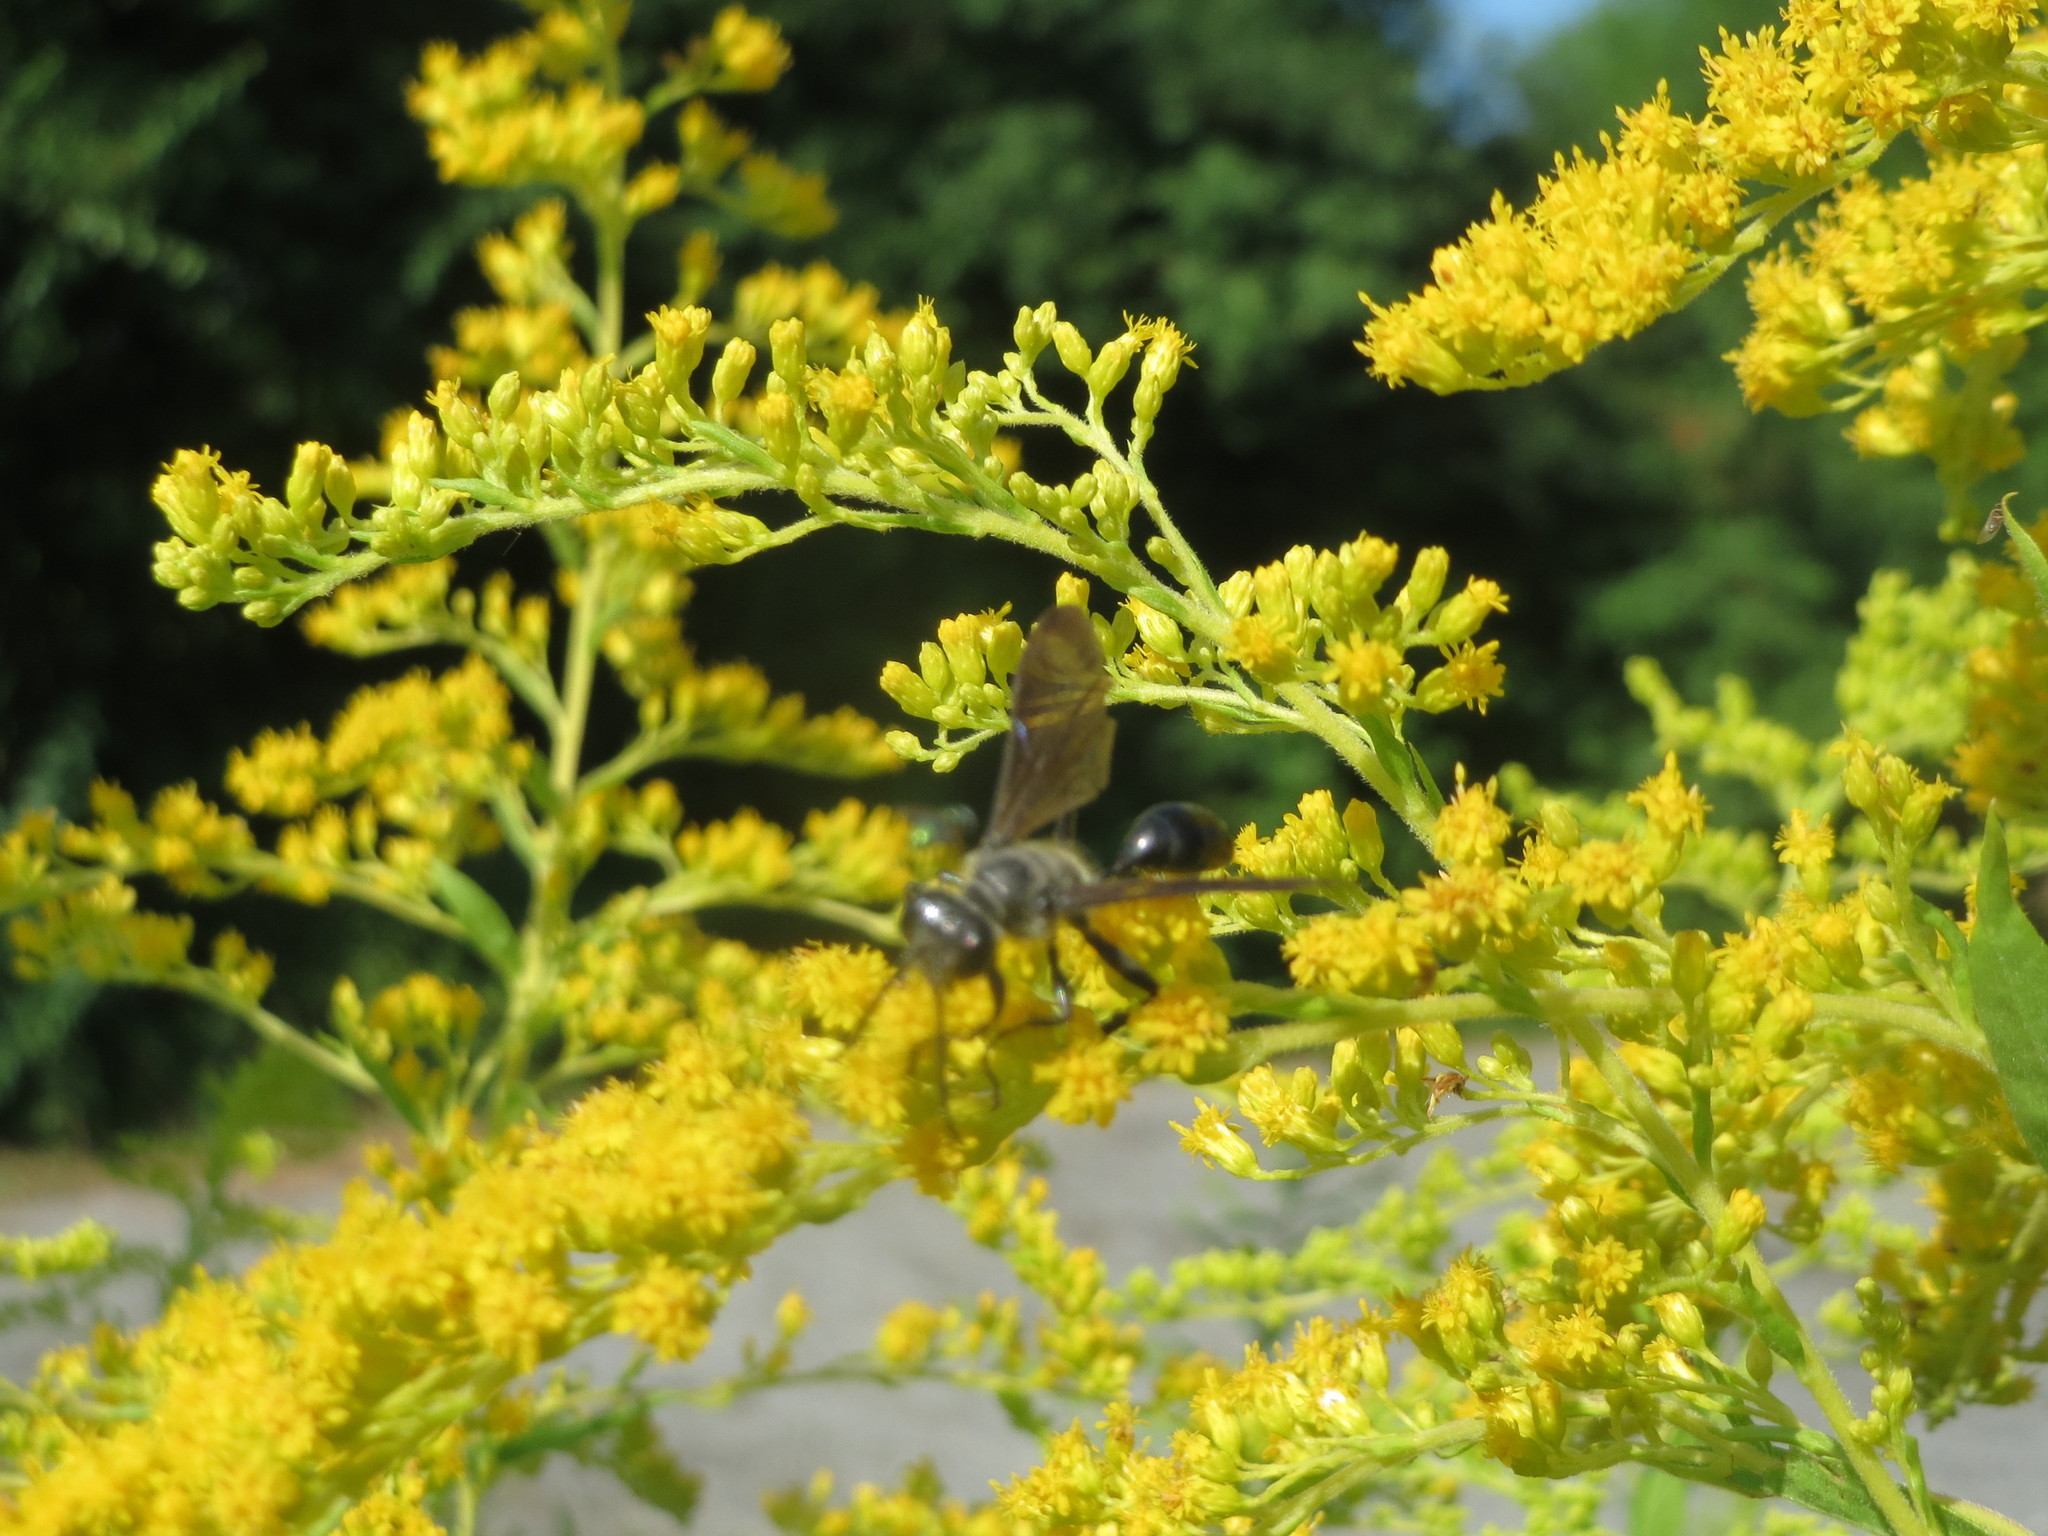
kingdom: Plantae
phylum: Tracheophyta
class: Magnoliopsida
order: Asterales
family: Asteraceae
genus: Solidago
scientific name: Solidago canadensis
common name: Canada goldenrod
